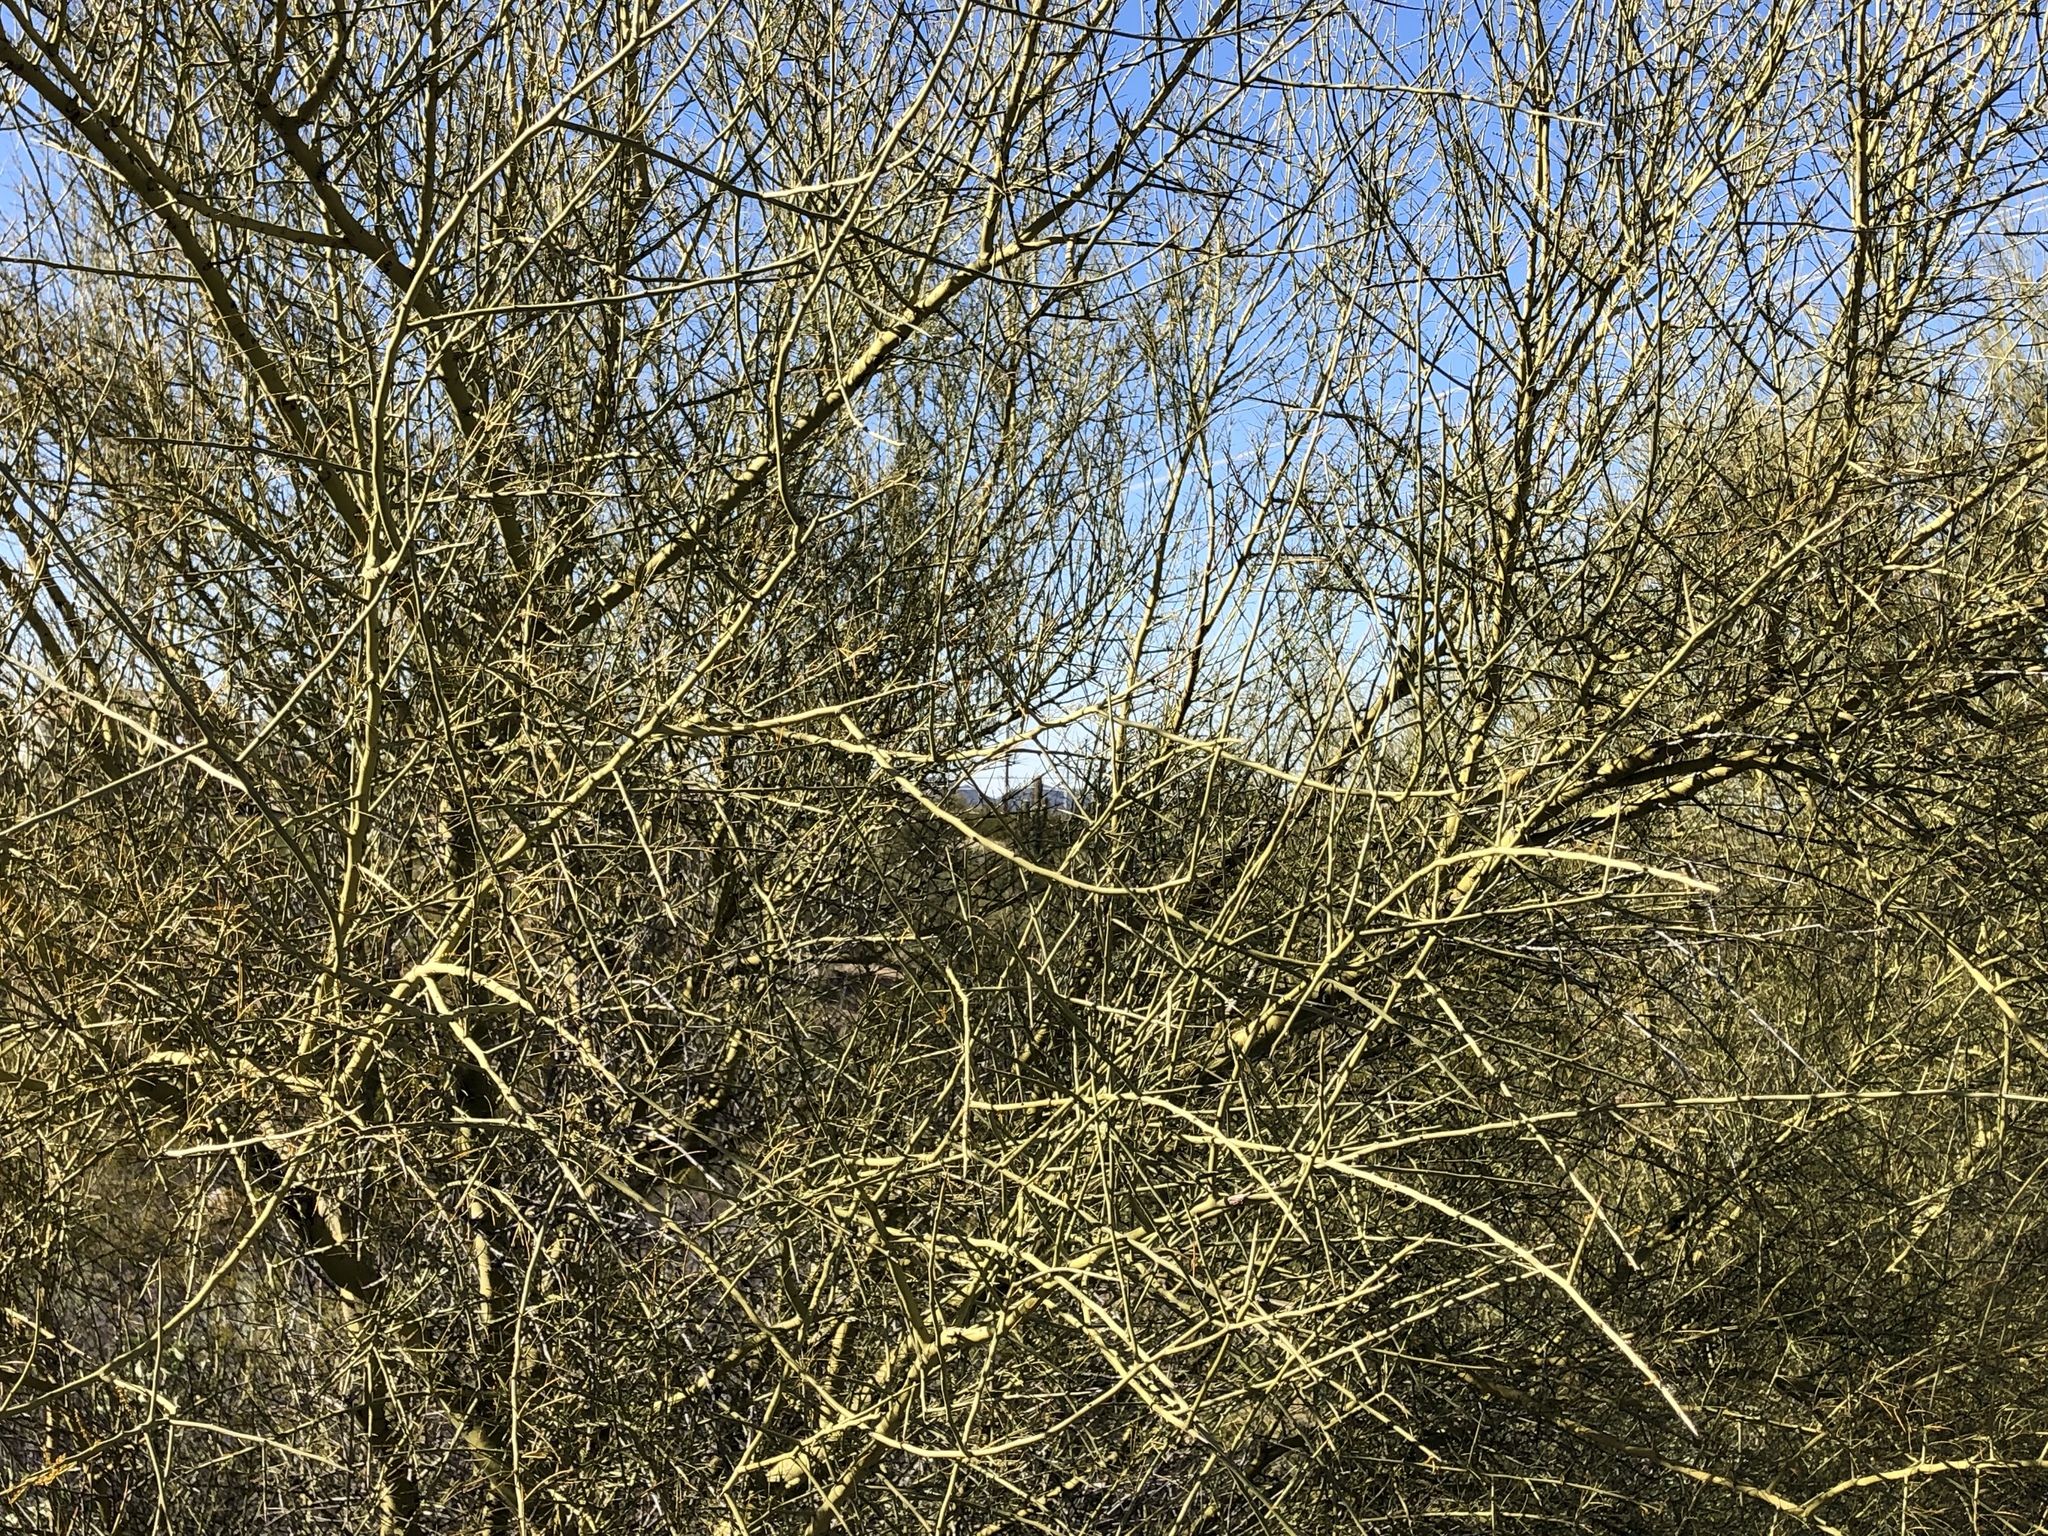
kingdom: Plantae
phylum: Tracheophyta
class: Magnoliopsida
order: Fabales
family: Fabaceae
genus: Parkinsonia
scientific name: Parkinsonia microphylla
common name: Yellow paloverde
